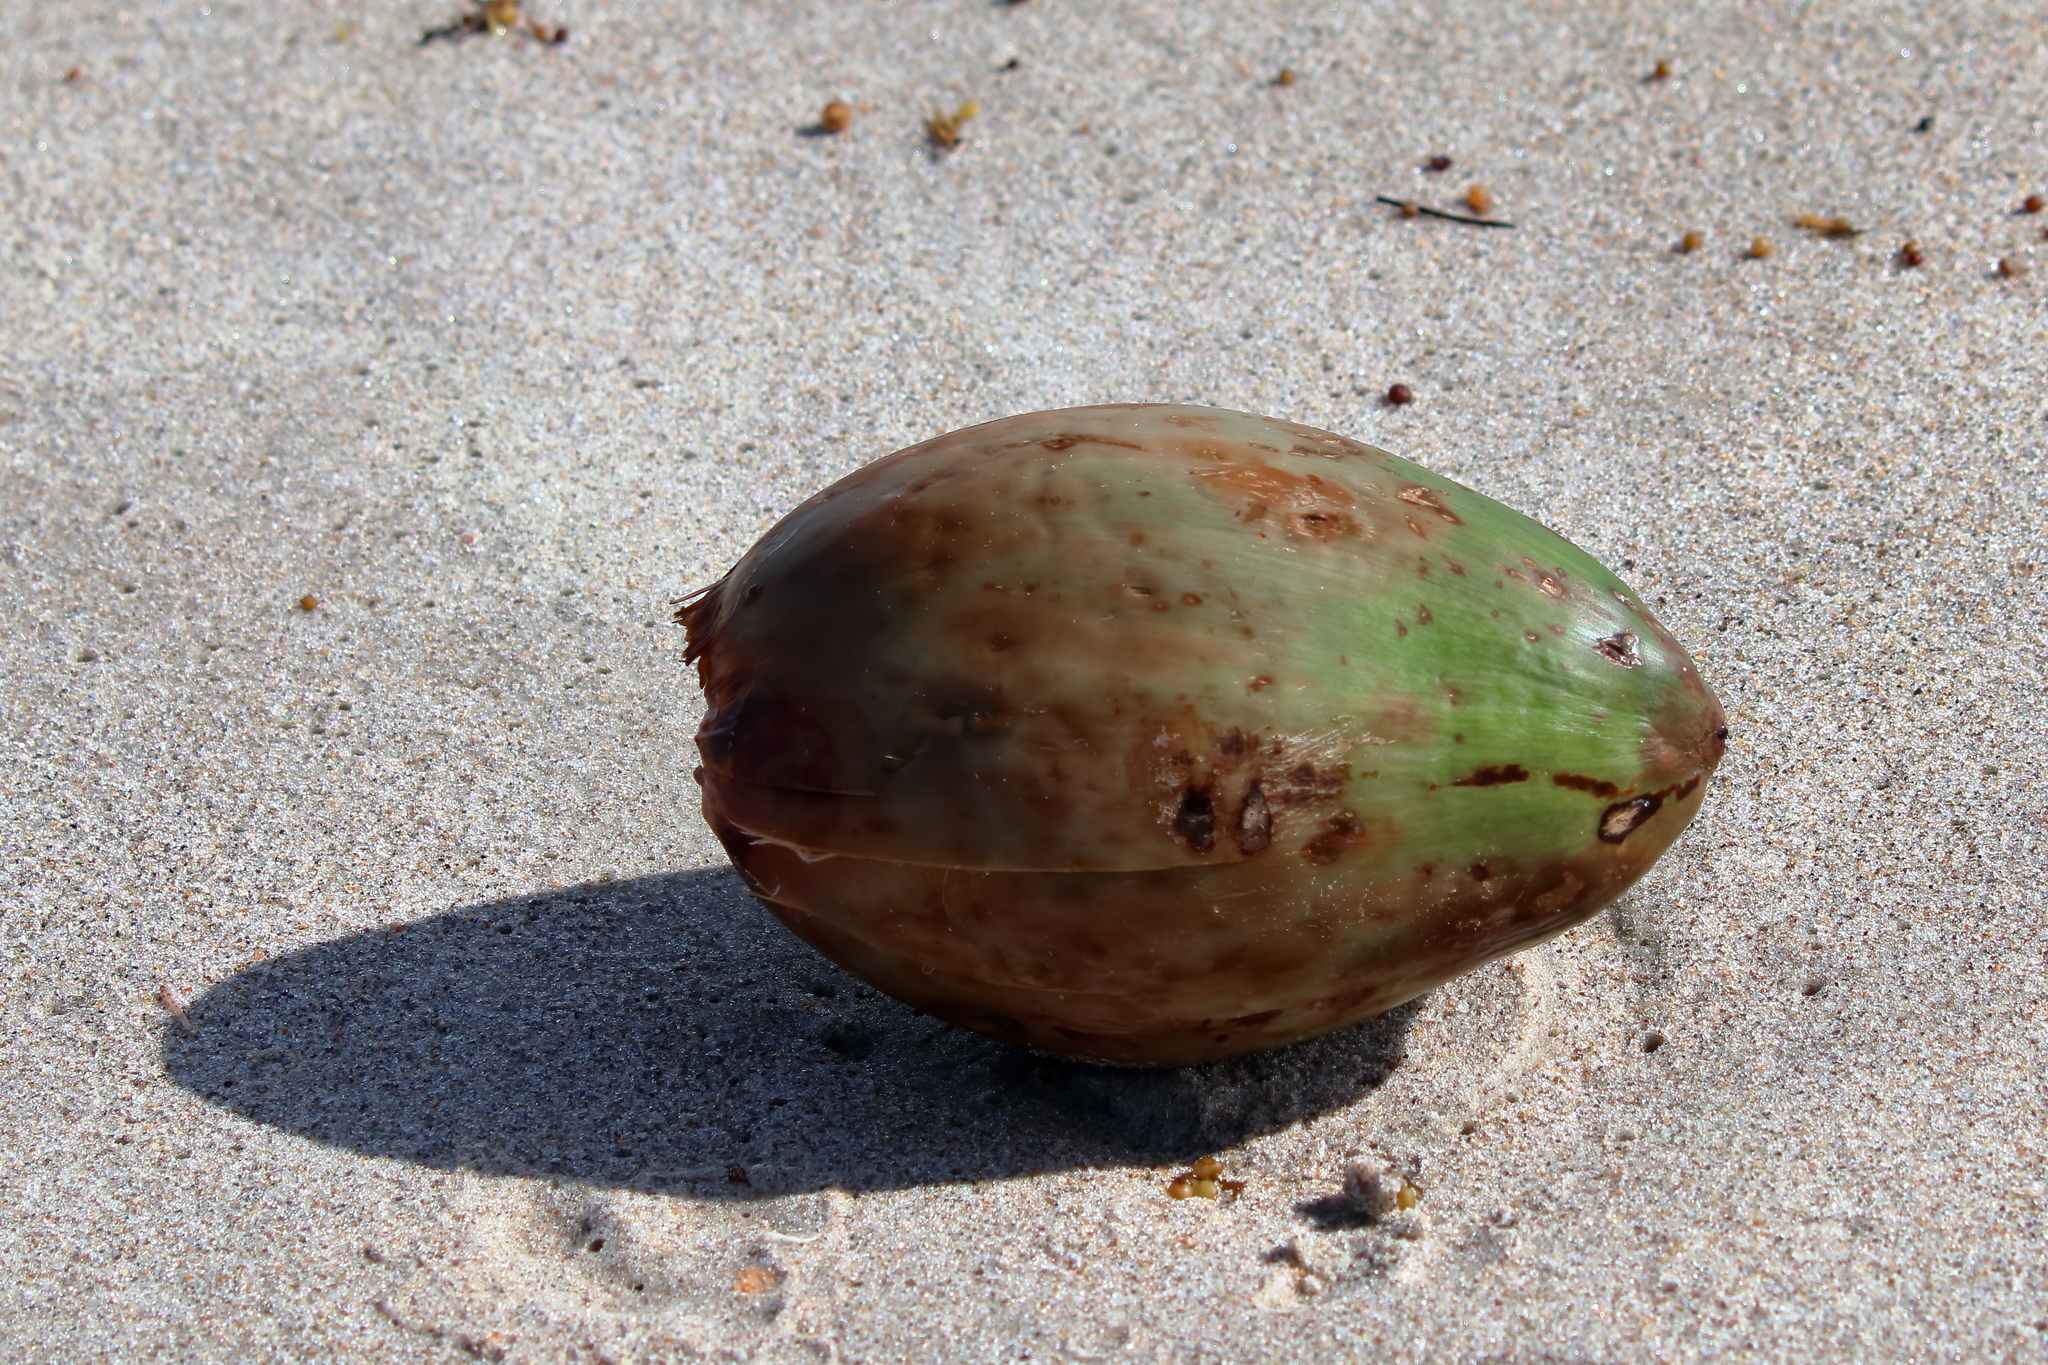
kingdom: Plantae
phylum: Tracheophyta
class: Liliopsida
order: Arecales
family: Arecaceae
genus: Cocos
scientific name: Cocos nucifera
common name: Coconut palm
